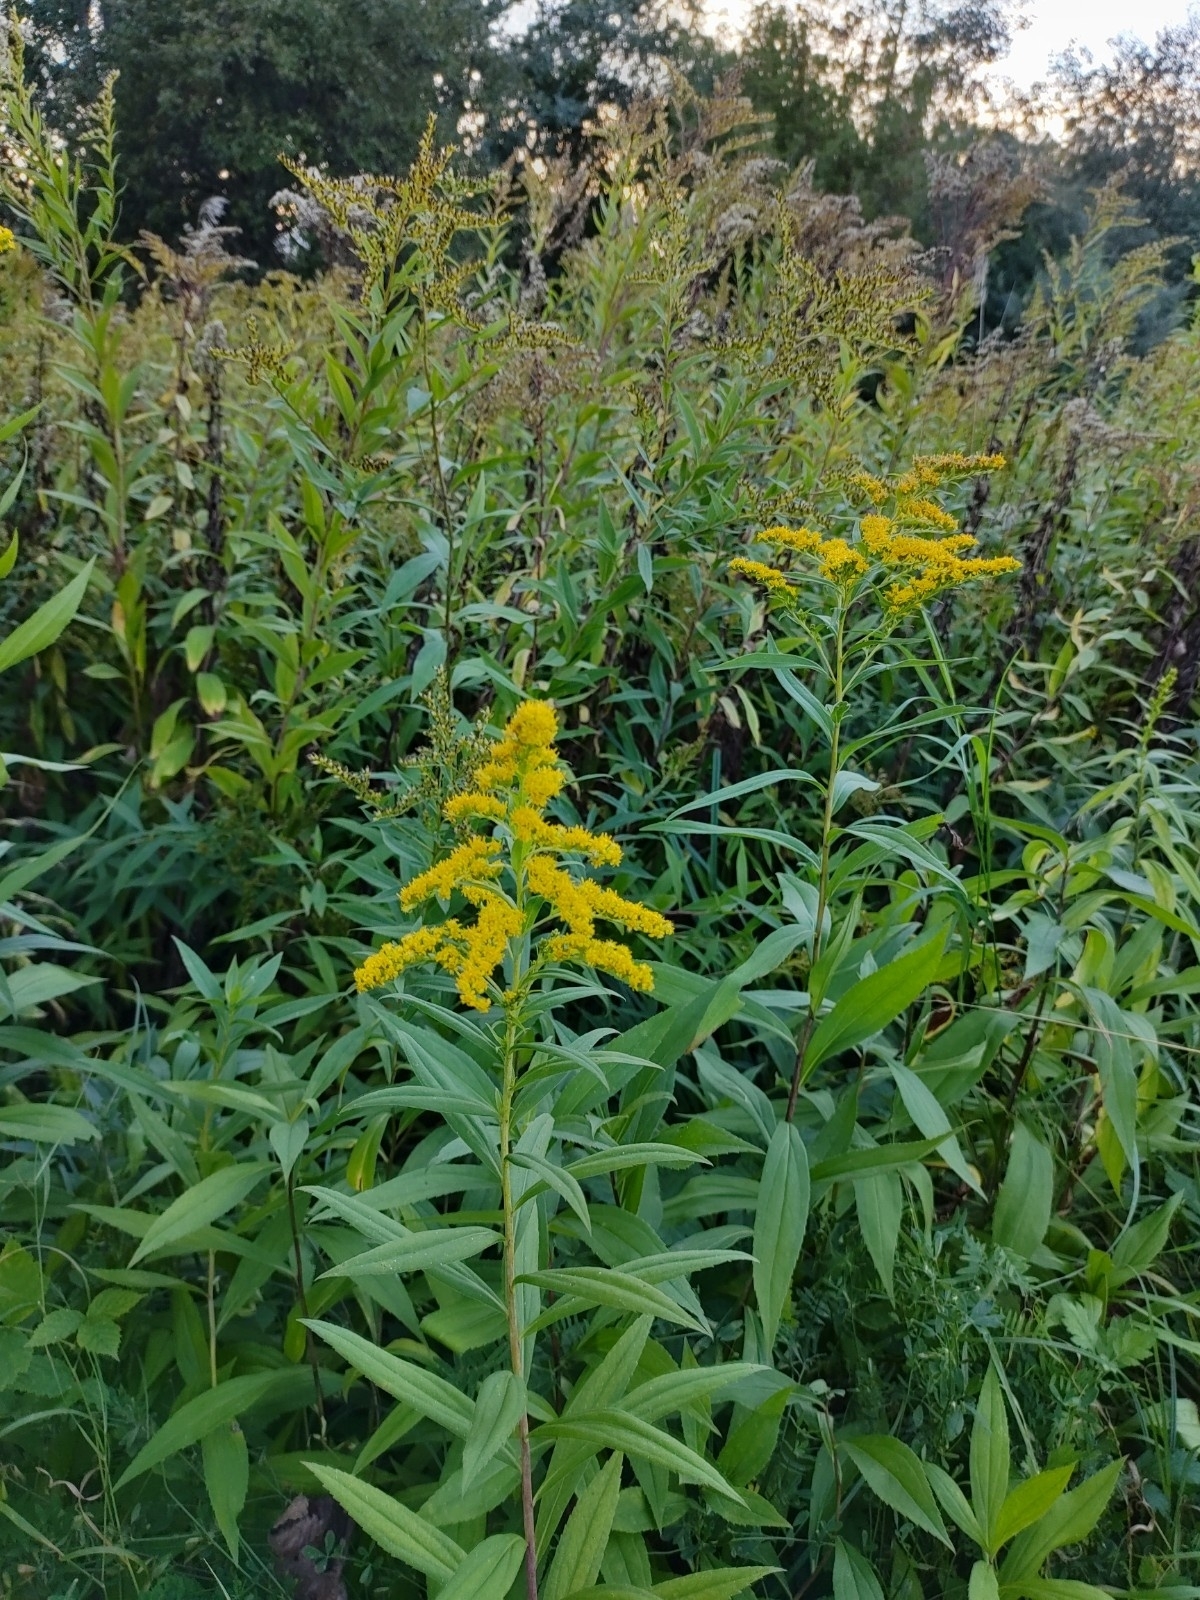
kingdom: Plantae
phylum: Tracheophyta
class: Magnoliopsida
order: Asterales
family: Asteraceae
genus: Solidago
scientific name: Solidago gigantea
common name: Giant goldenrod
